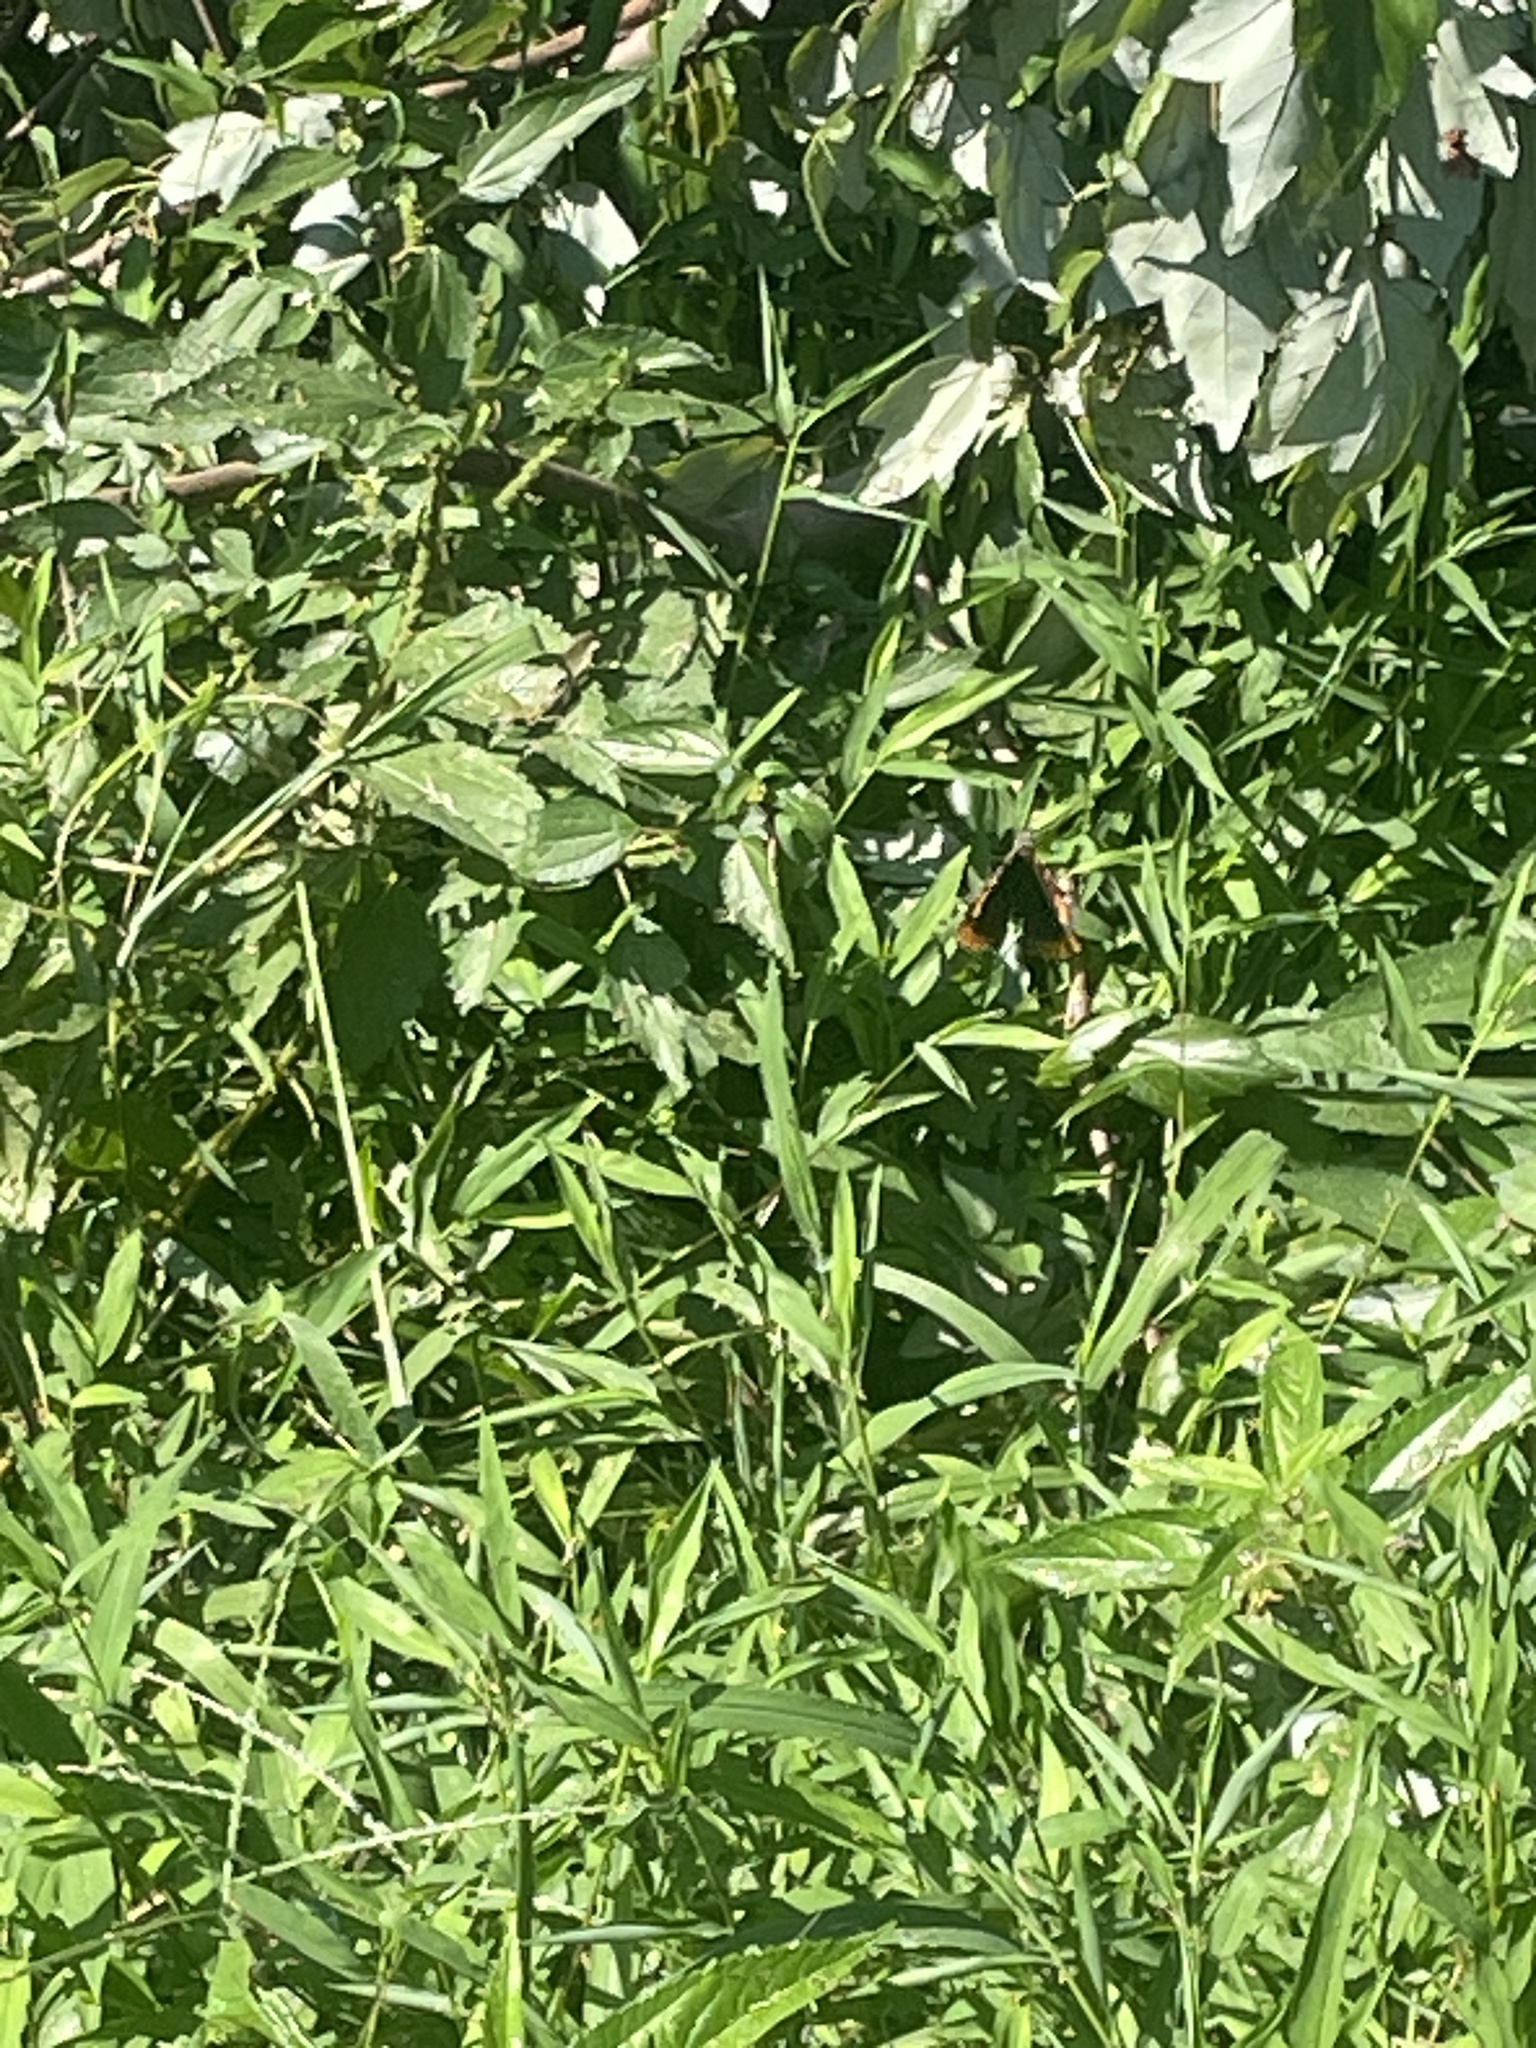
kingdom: Animalia
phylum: Arthropoda
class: Insecta
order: Lepidoptera
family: Nymphalidae
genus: Vanessa
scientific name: Vanessa atalanta
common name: Red admiral
